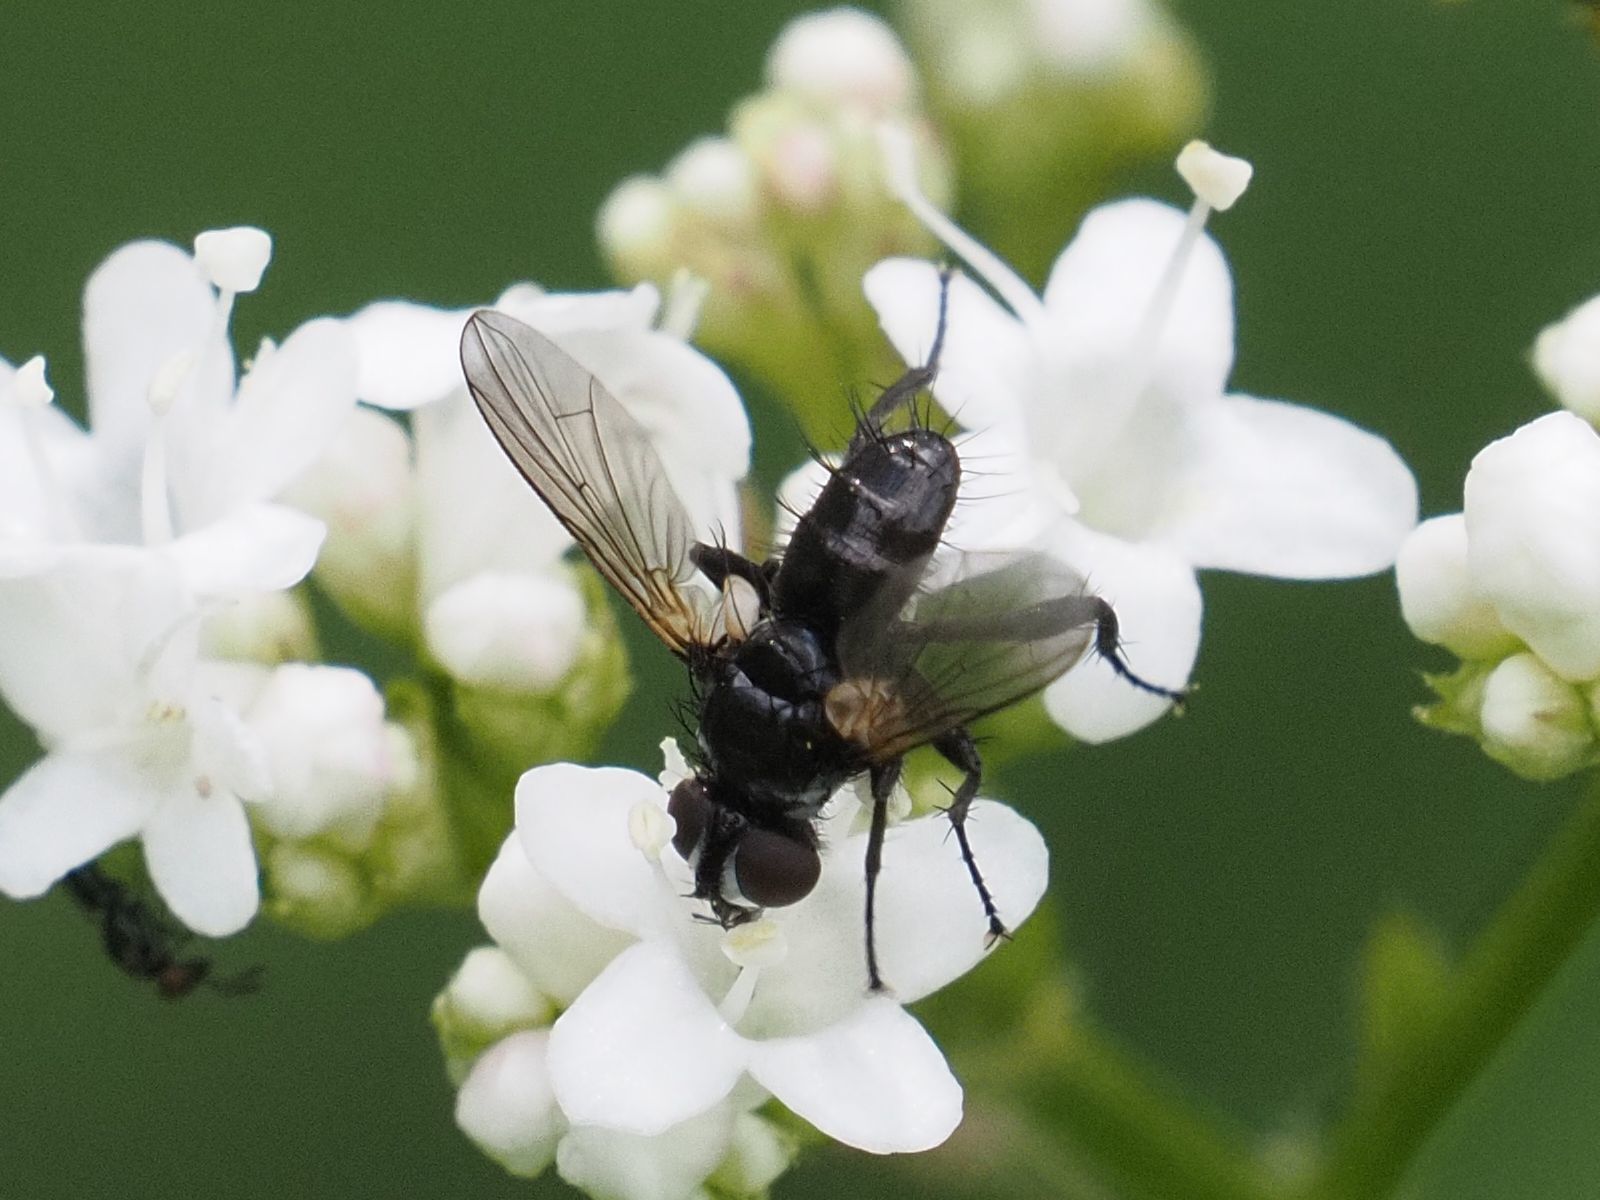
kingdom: Animalia
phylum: Arthropoda
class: Insecta
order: Diptera
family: Tachinidae
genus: Phania
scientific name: Phania funesta
